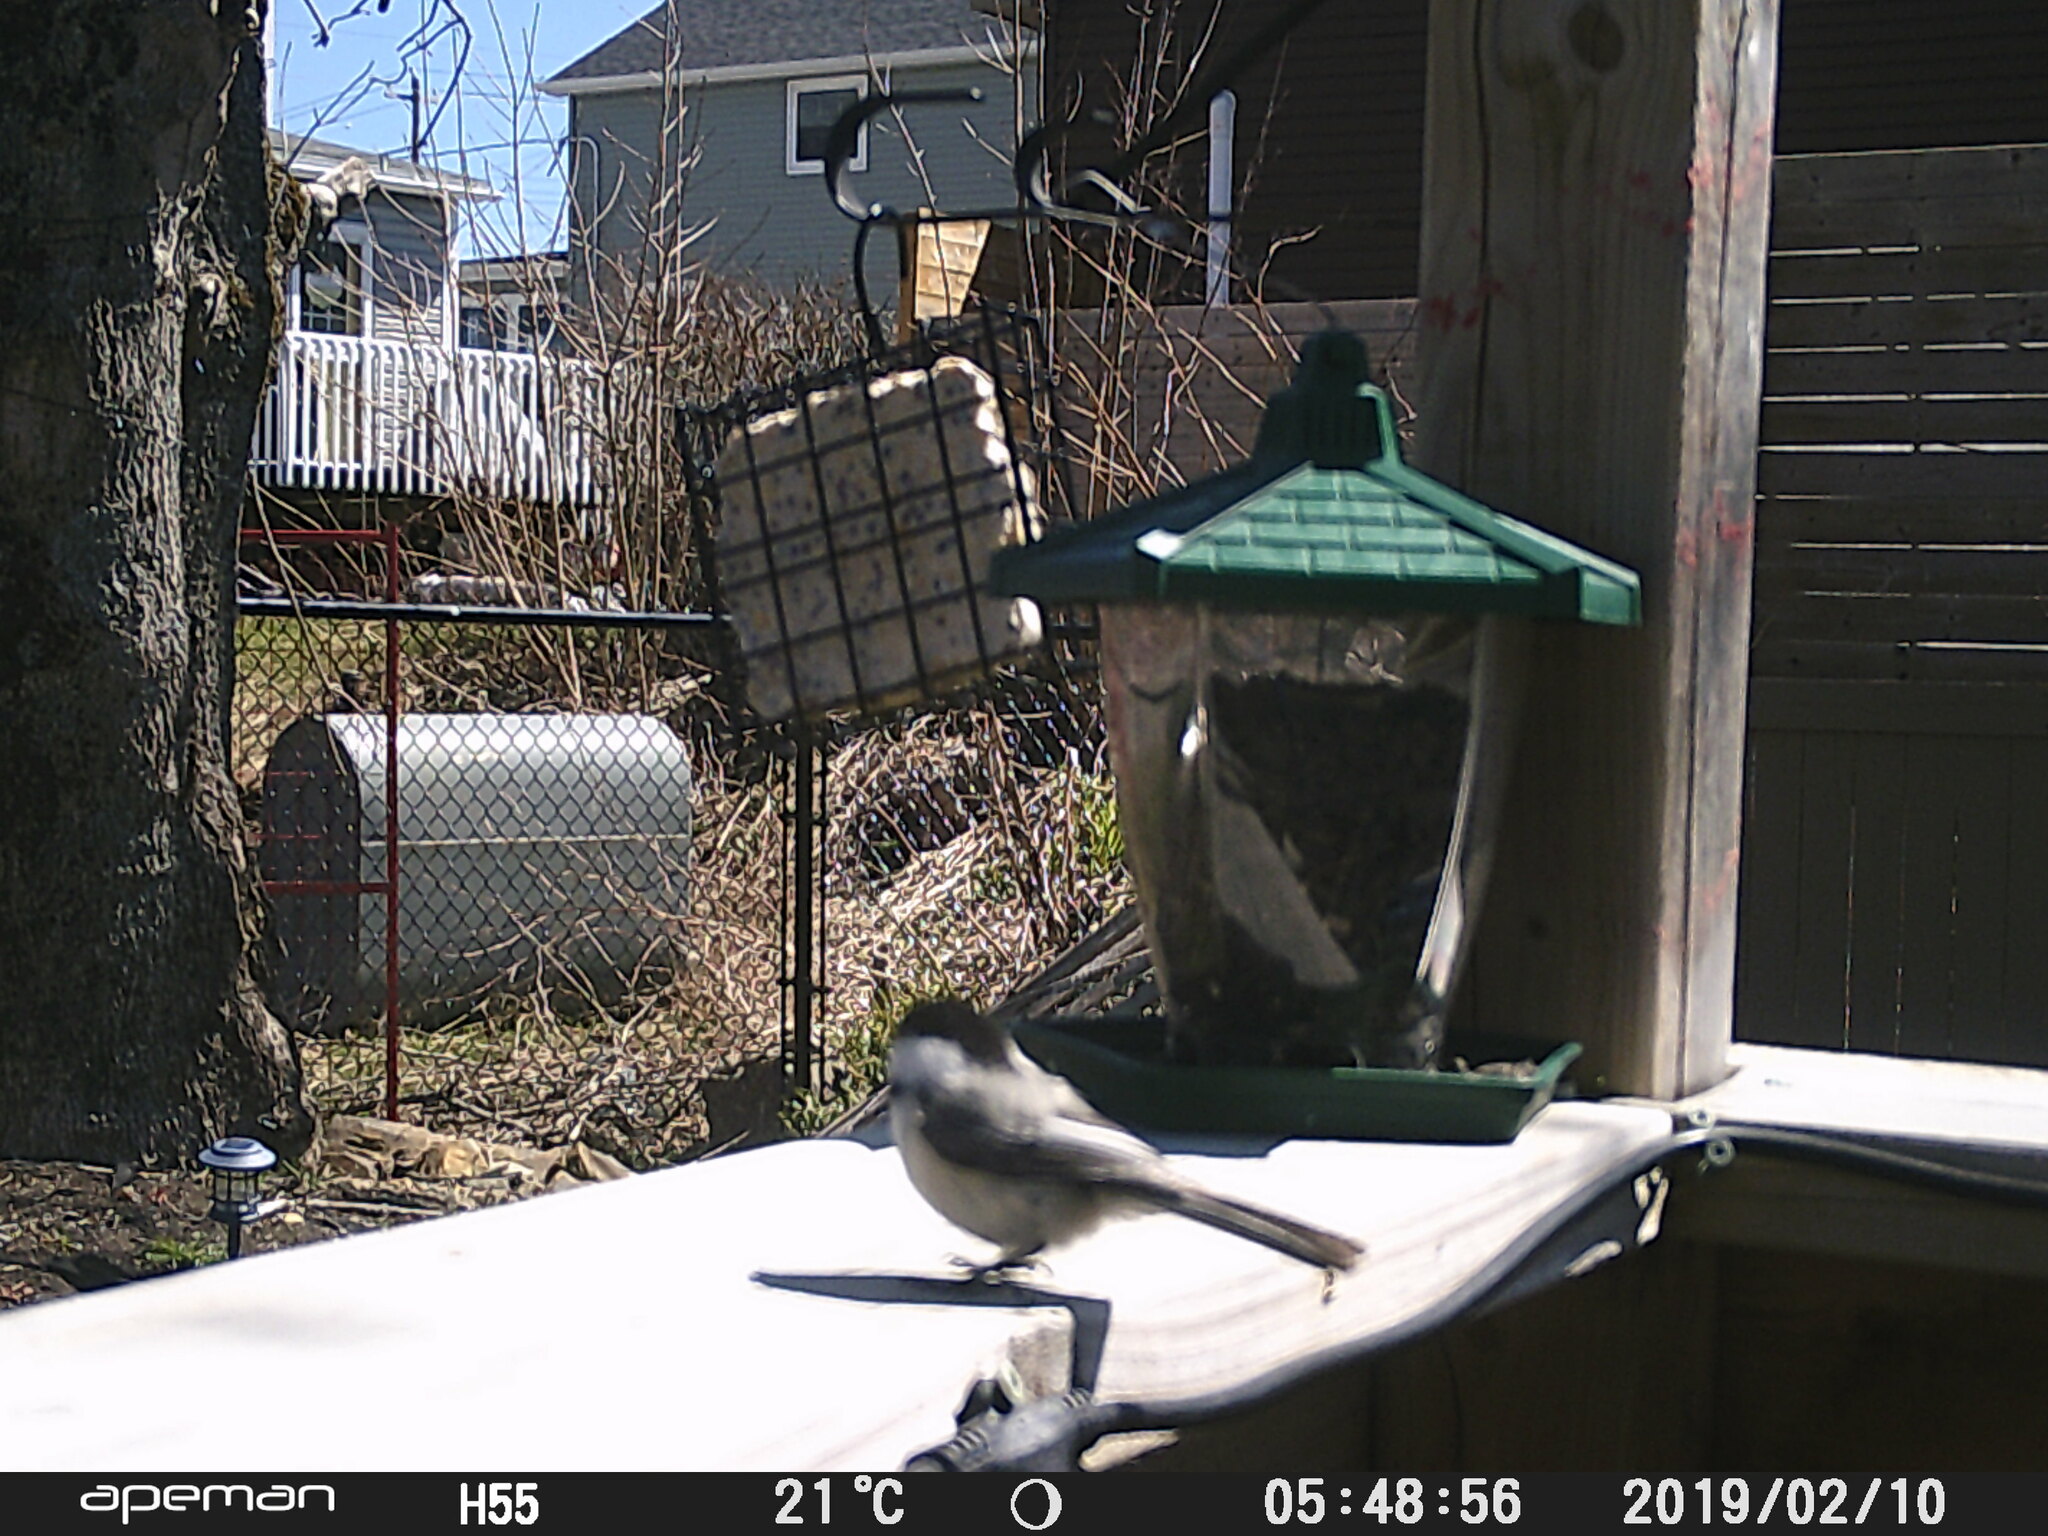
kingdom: Animalia
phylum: Chordata
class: Aves
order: Passeriformes
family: Paridae
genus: Poecile
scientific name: Poecile atricapillus
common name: Black-capped chickadee
